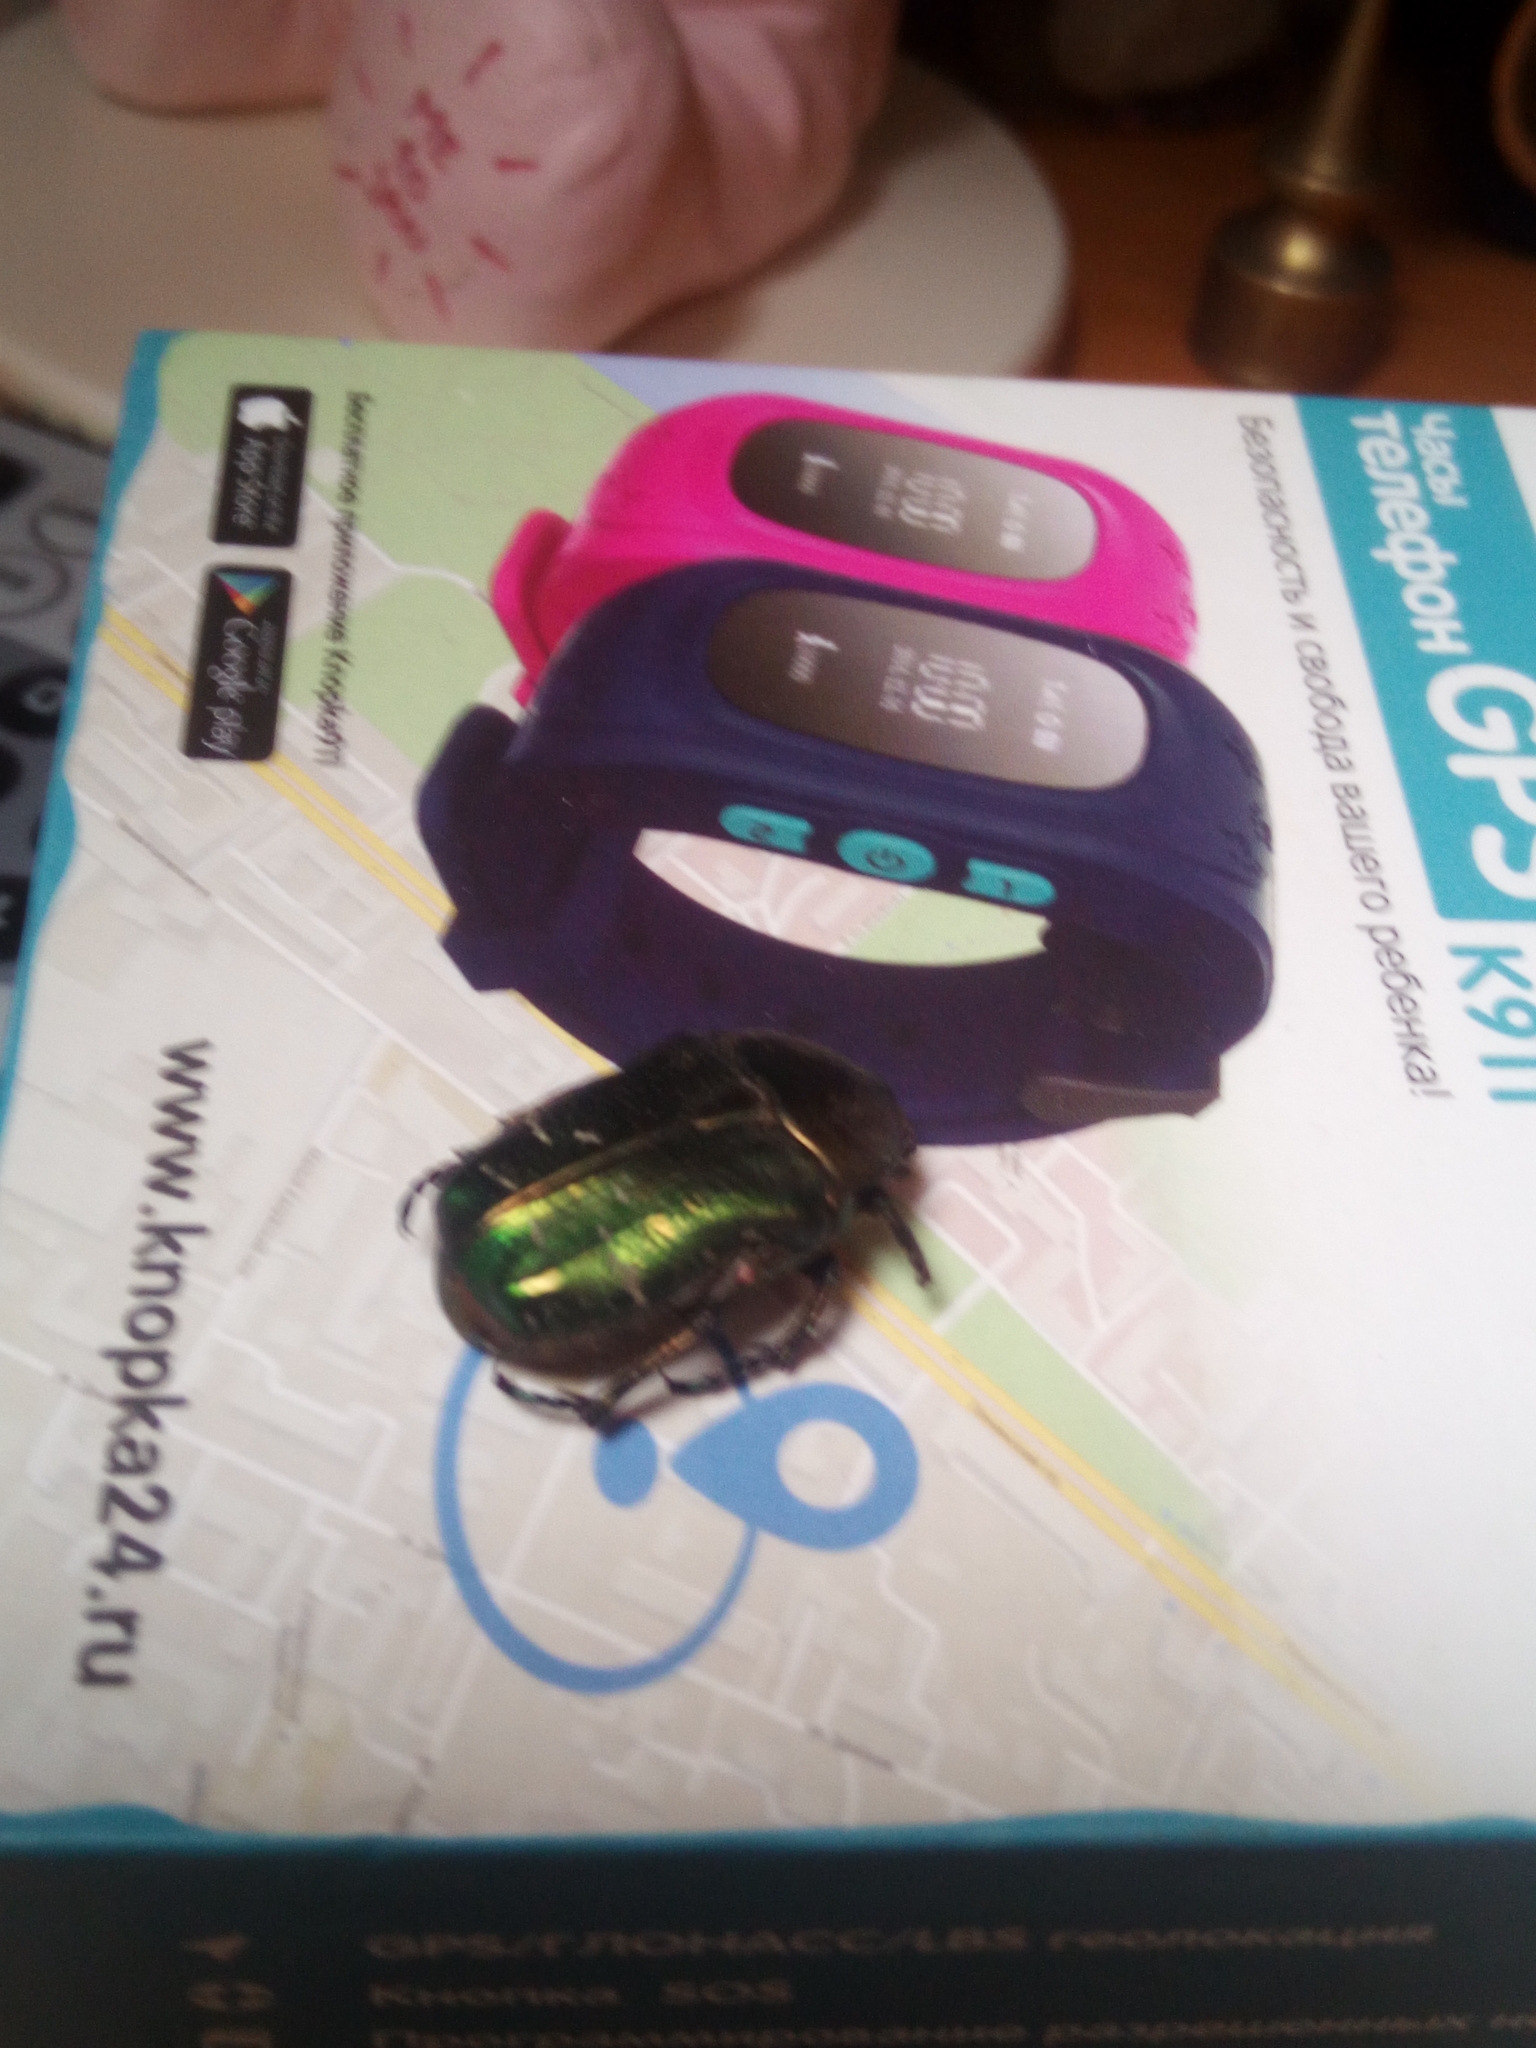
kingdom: Animalia
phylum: Arthropoda
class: Insecta
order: Coleoptera
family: Scarabaeidae
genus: Cetonia
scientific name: Cetonia aurata
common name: Rose chafer
